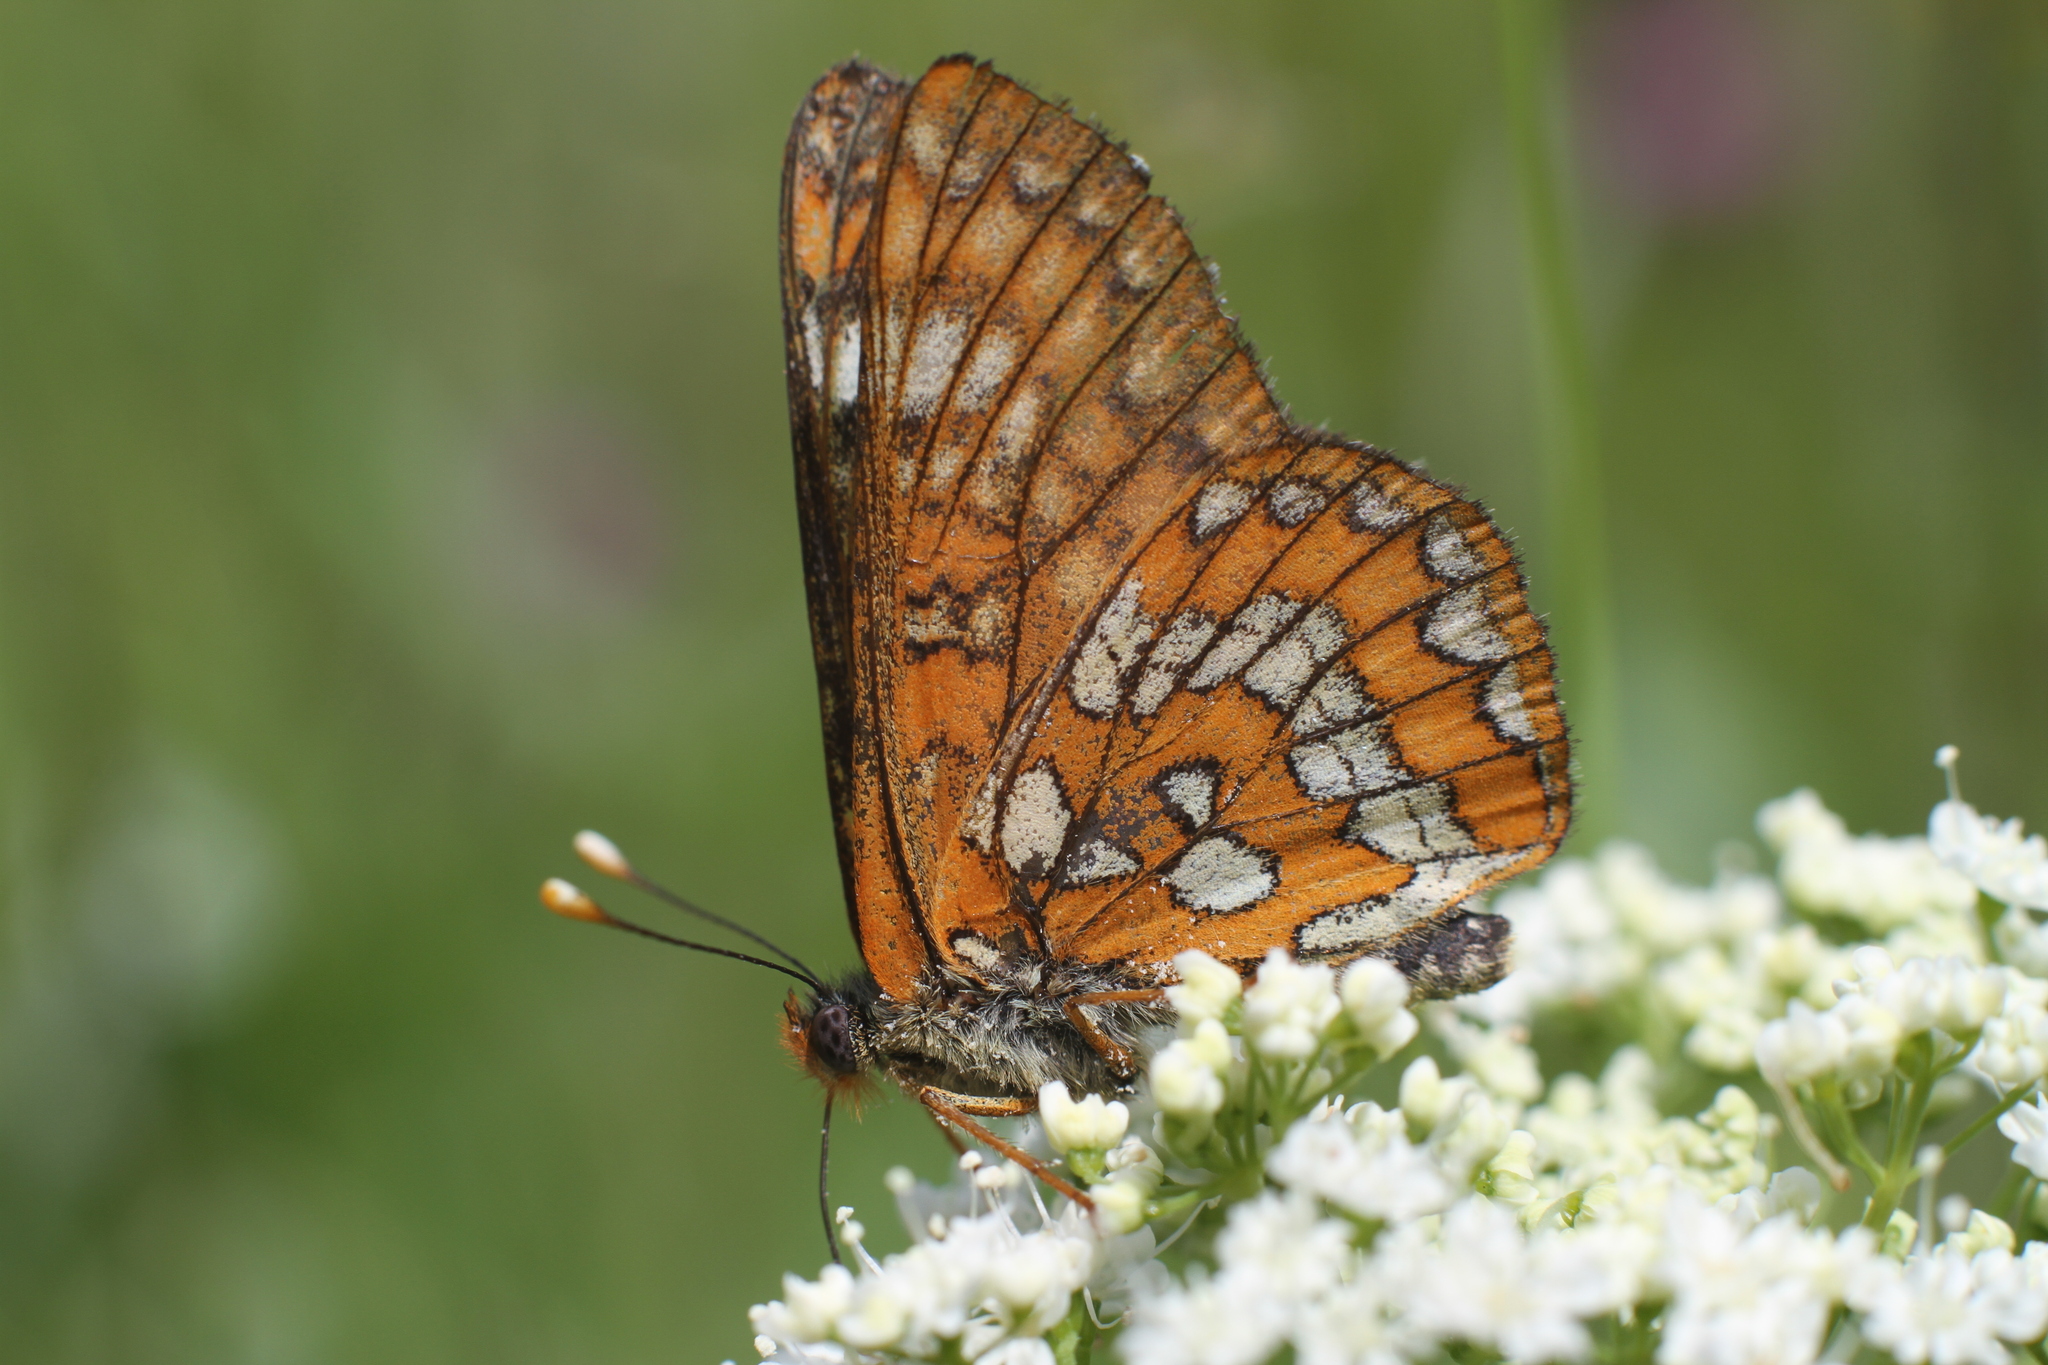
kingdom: Animalia
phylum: Arthropoda
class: Insecta
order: Lepidoptera
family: Nymphalidae
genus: Euphydryas
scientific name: Euphydryas maturna
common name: Scarce fritillary
